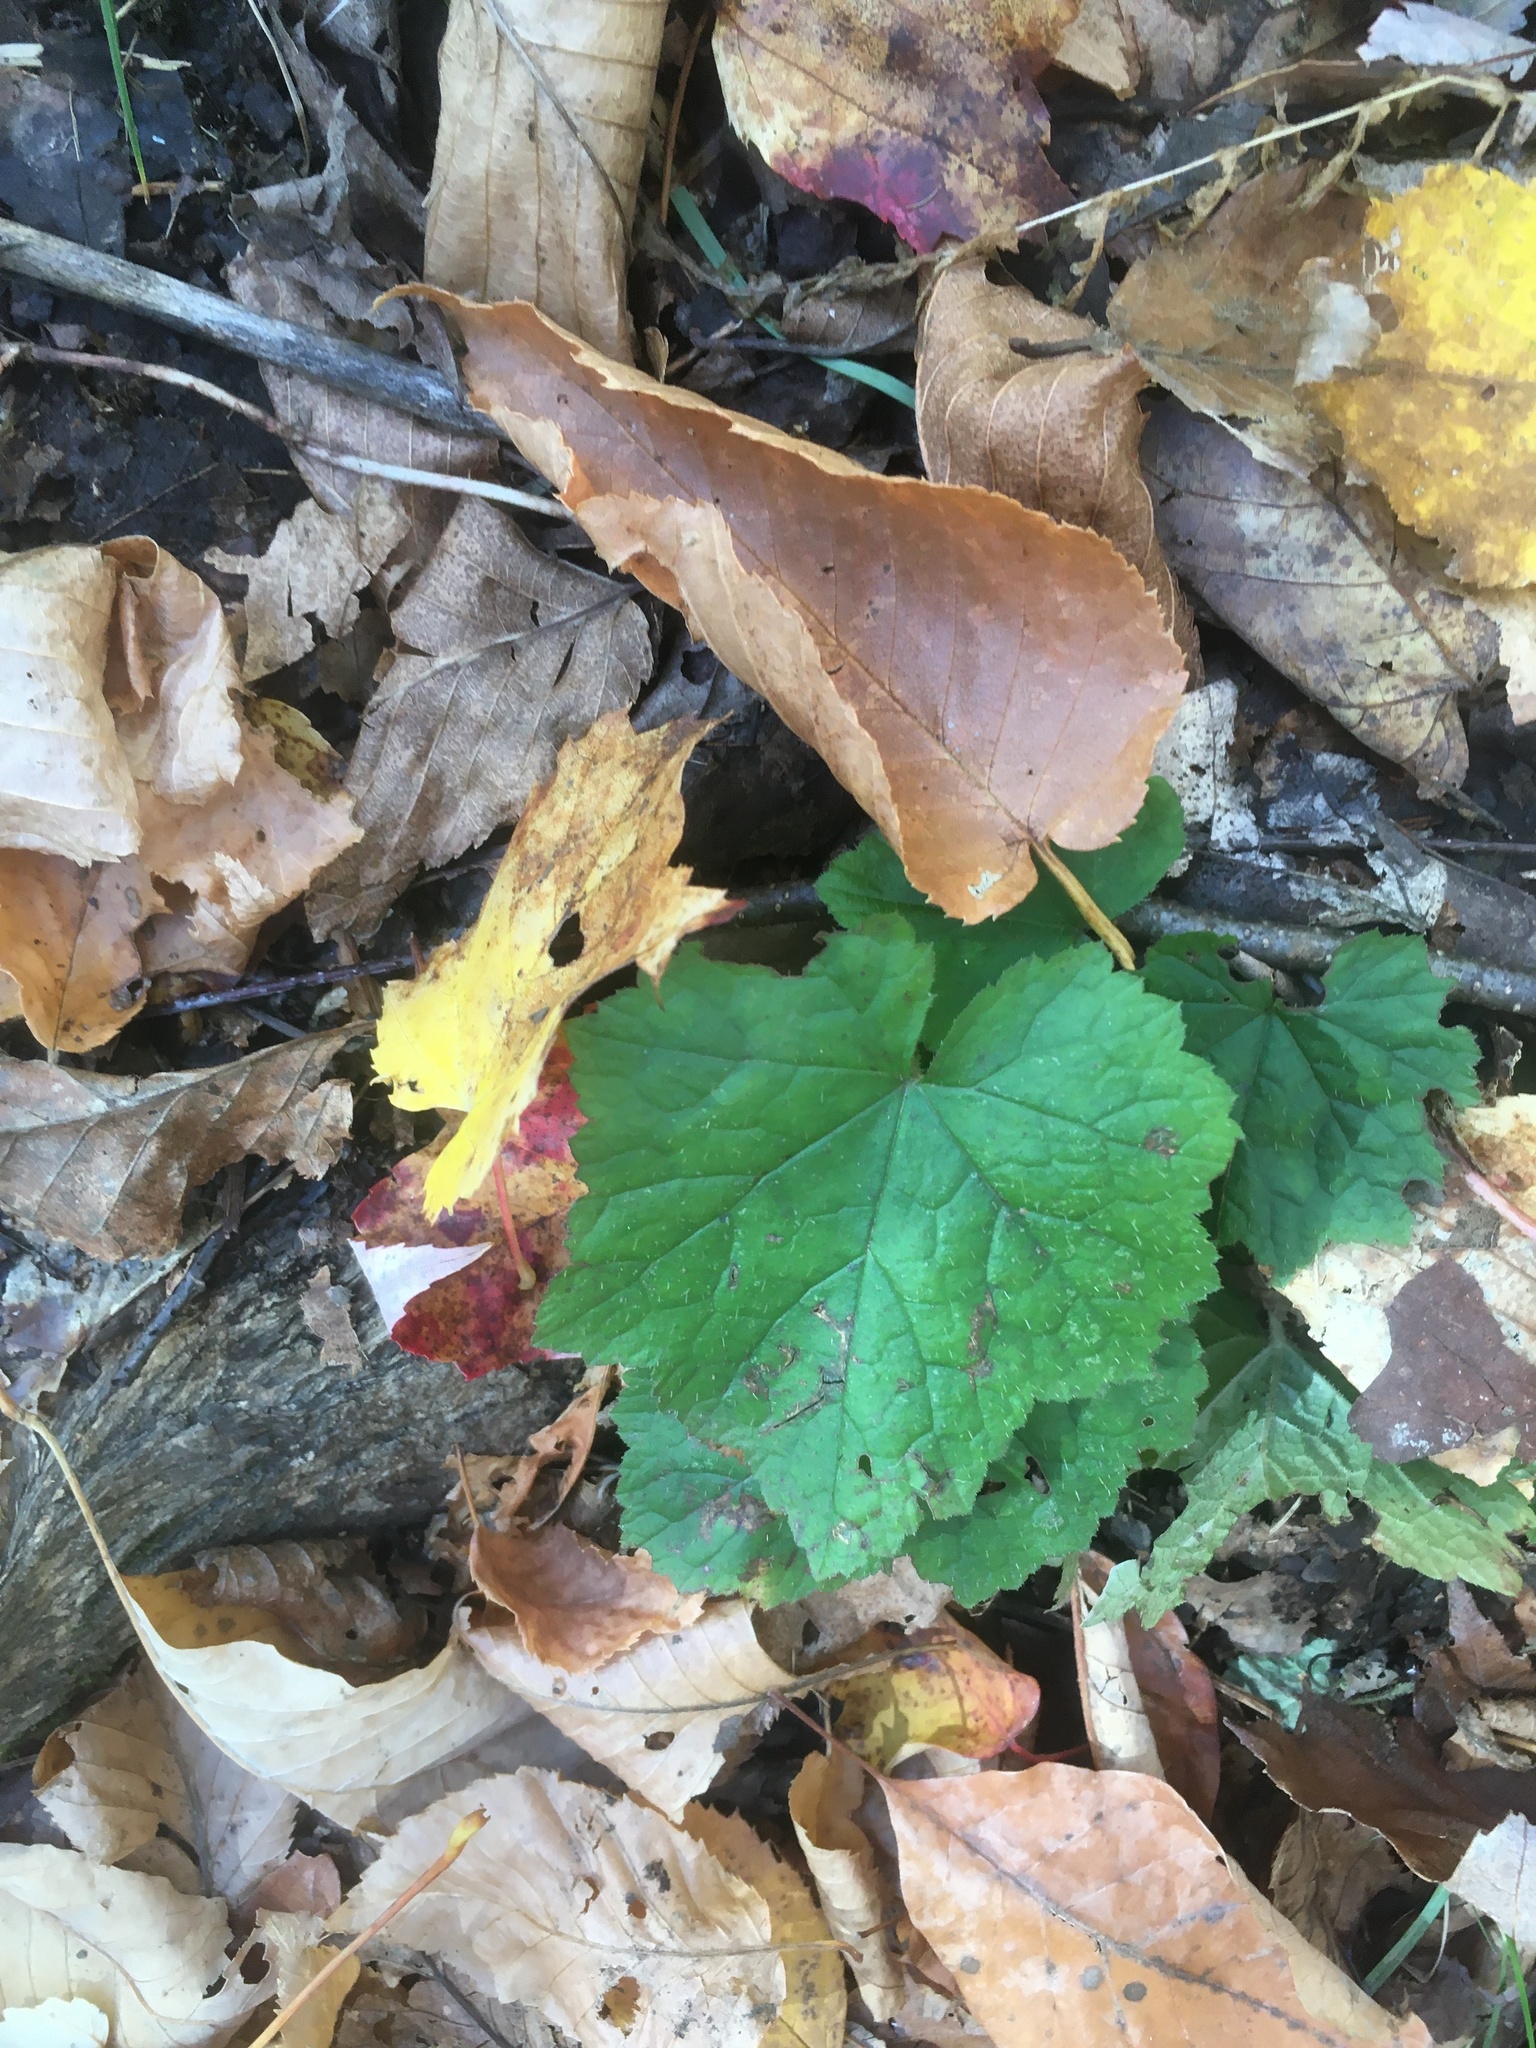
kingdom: Plantae
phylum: Tracheophyta
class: Magnoliopsida
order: Saxifragales
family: Saxifragaceae
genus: Tiarella
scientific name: Tiarella stolonifera
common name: Stoloniferous foamflower
